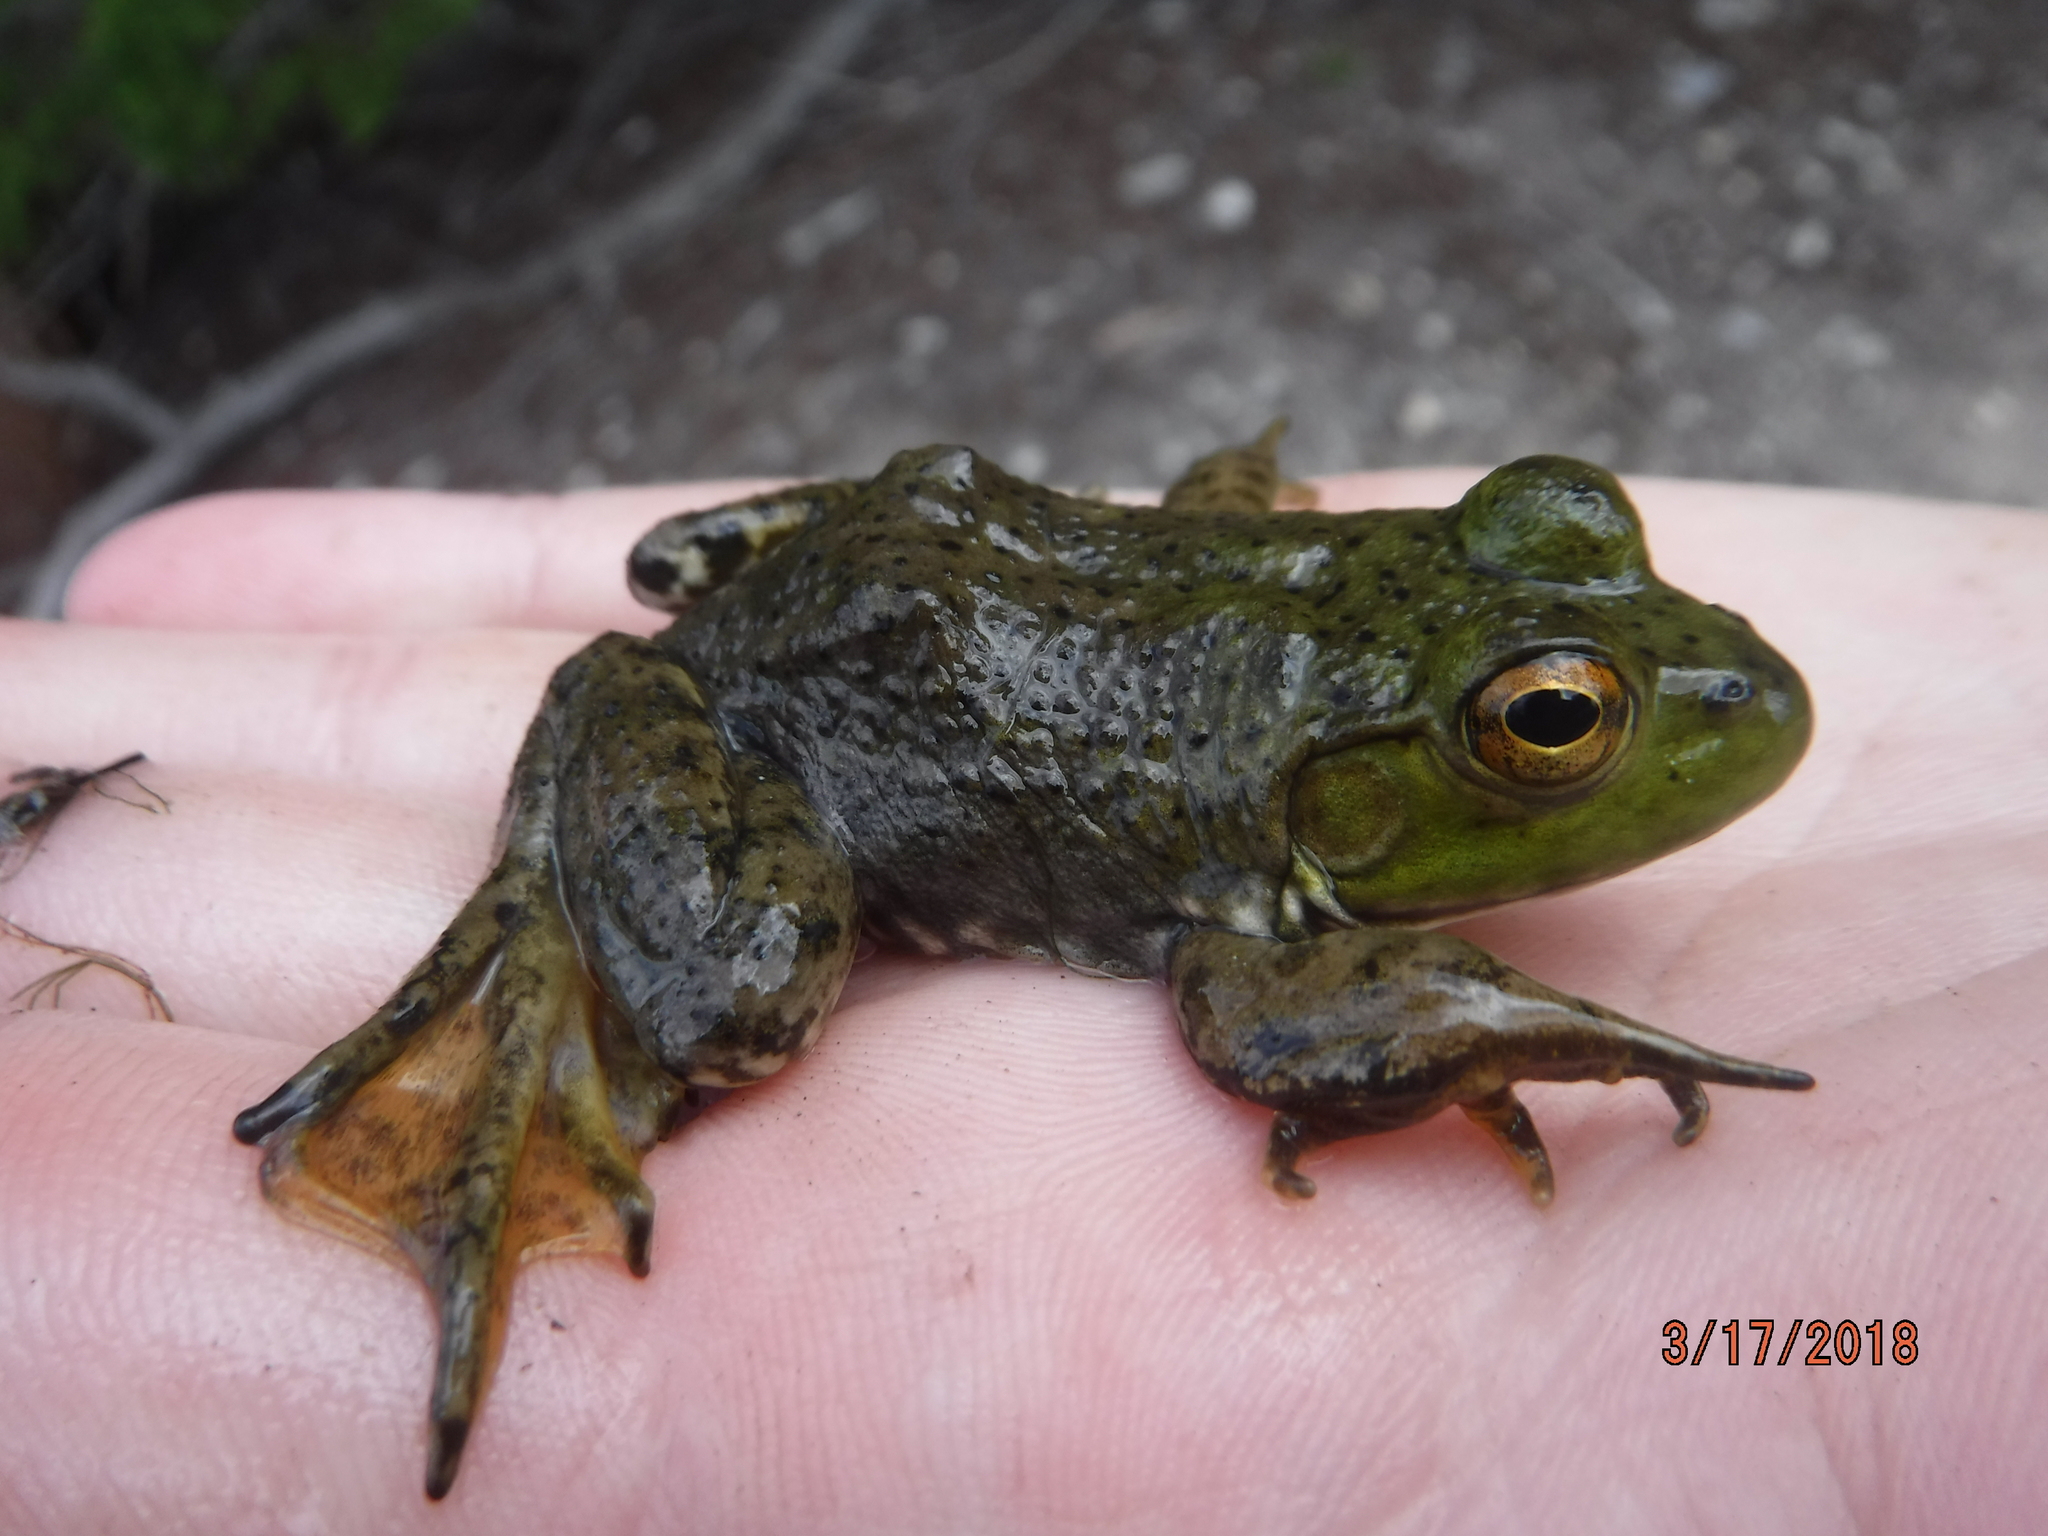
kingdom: Animalia
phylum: Chordata
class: Amphibia
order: Anura
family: Ranidae
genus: Lithobates
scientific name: Lithobates catesbeianus
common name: American bullfrog
